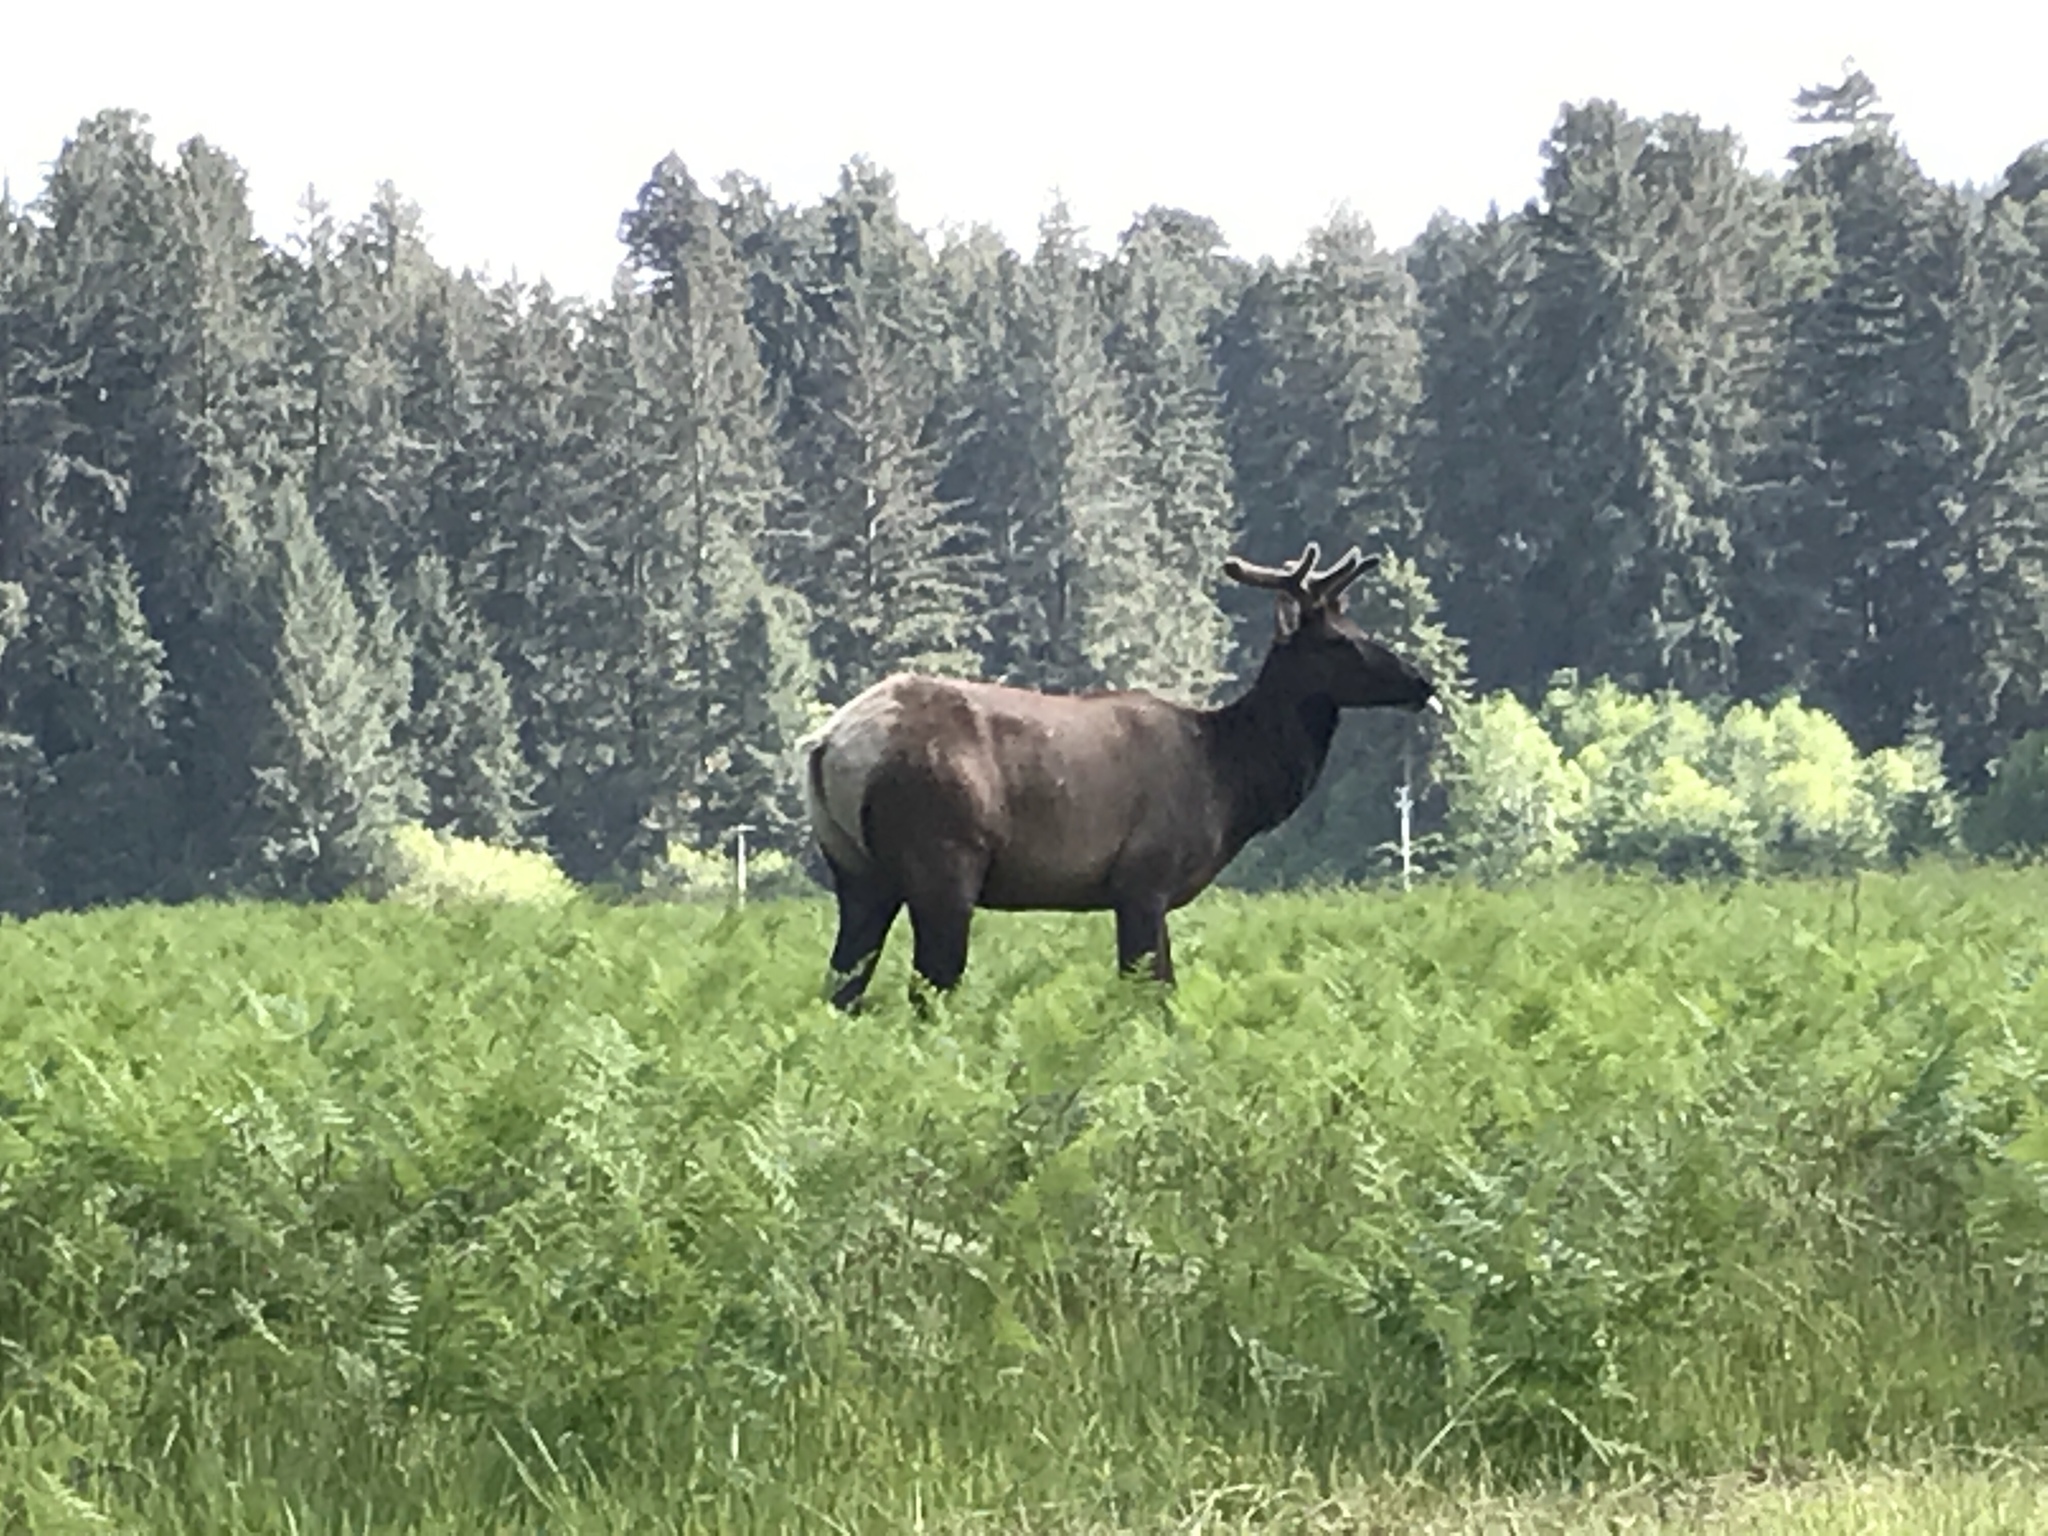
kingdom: Animalia
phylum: Chordata
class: Mammalia
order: Artiodactyla
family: Cervidae
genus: Cervus
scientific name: Cervus elaphus
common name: Red deer
